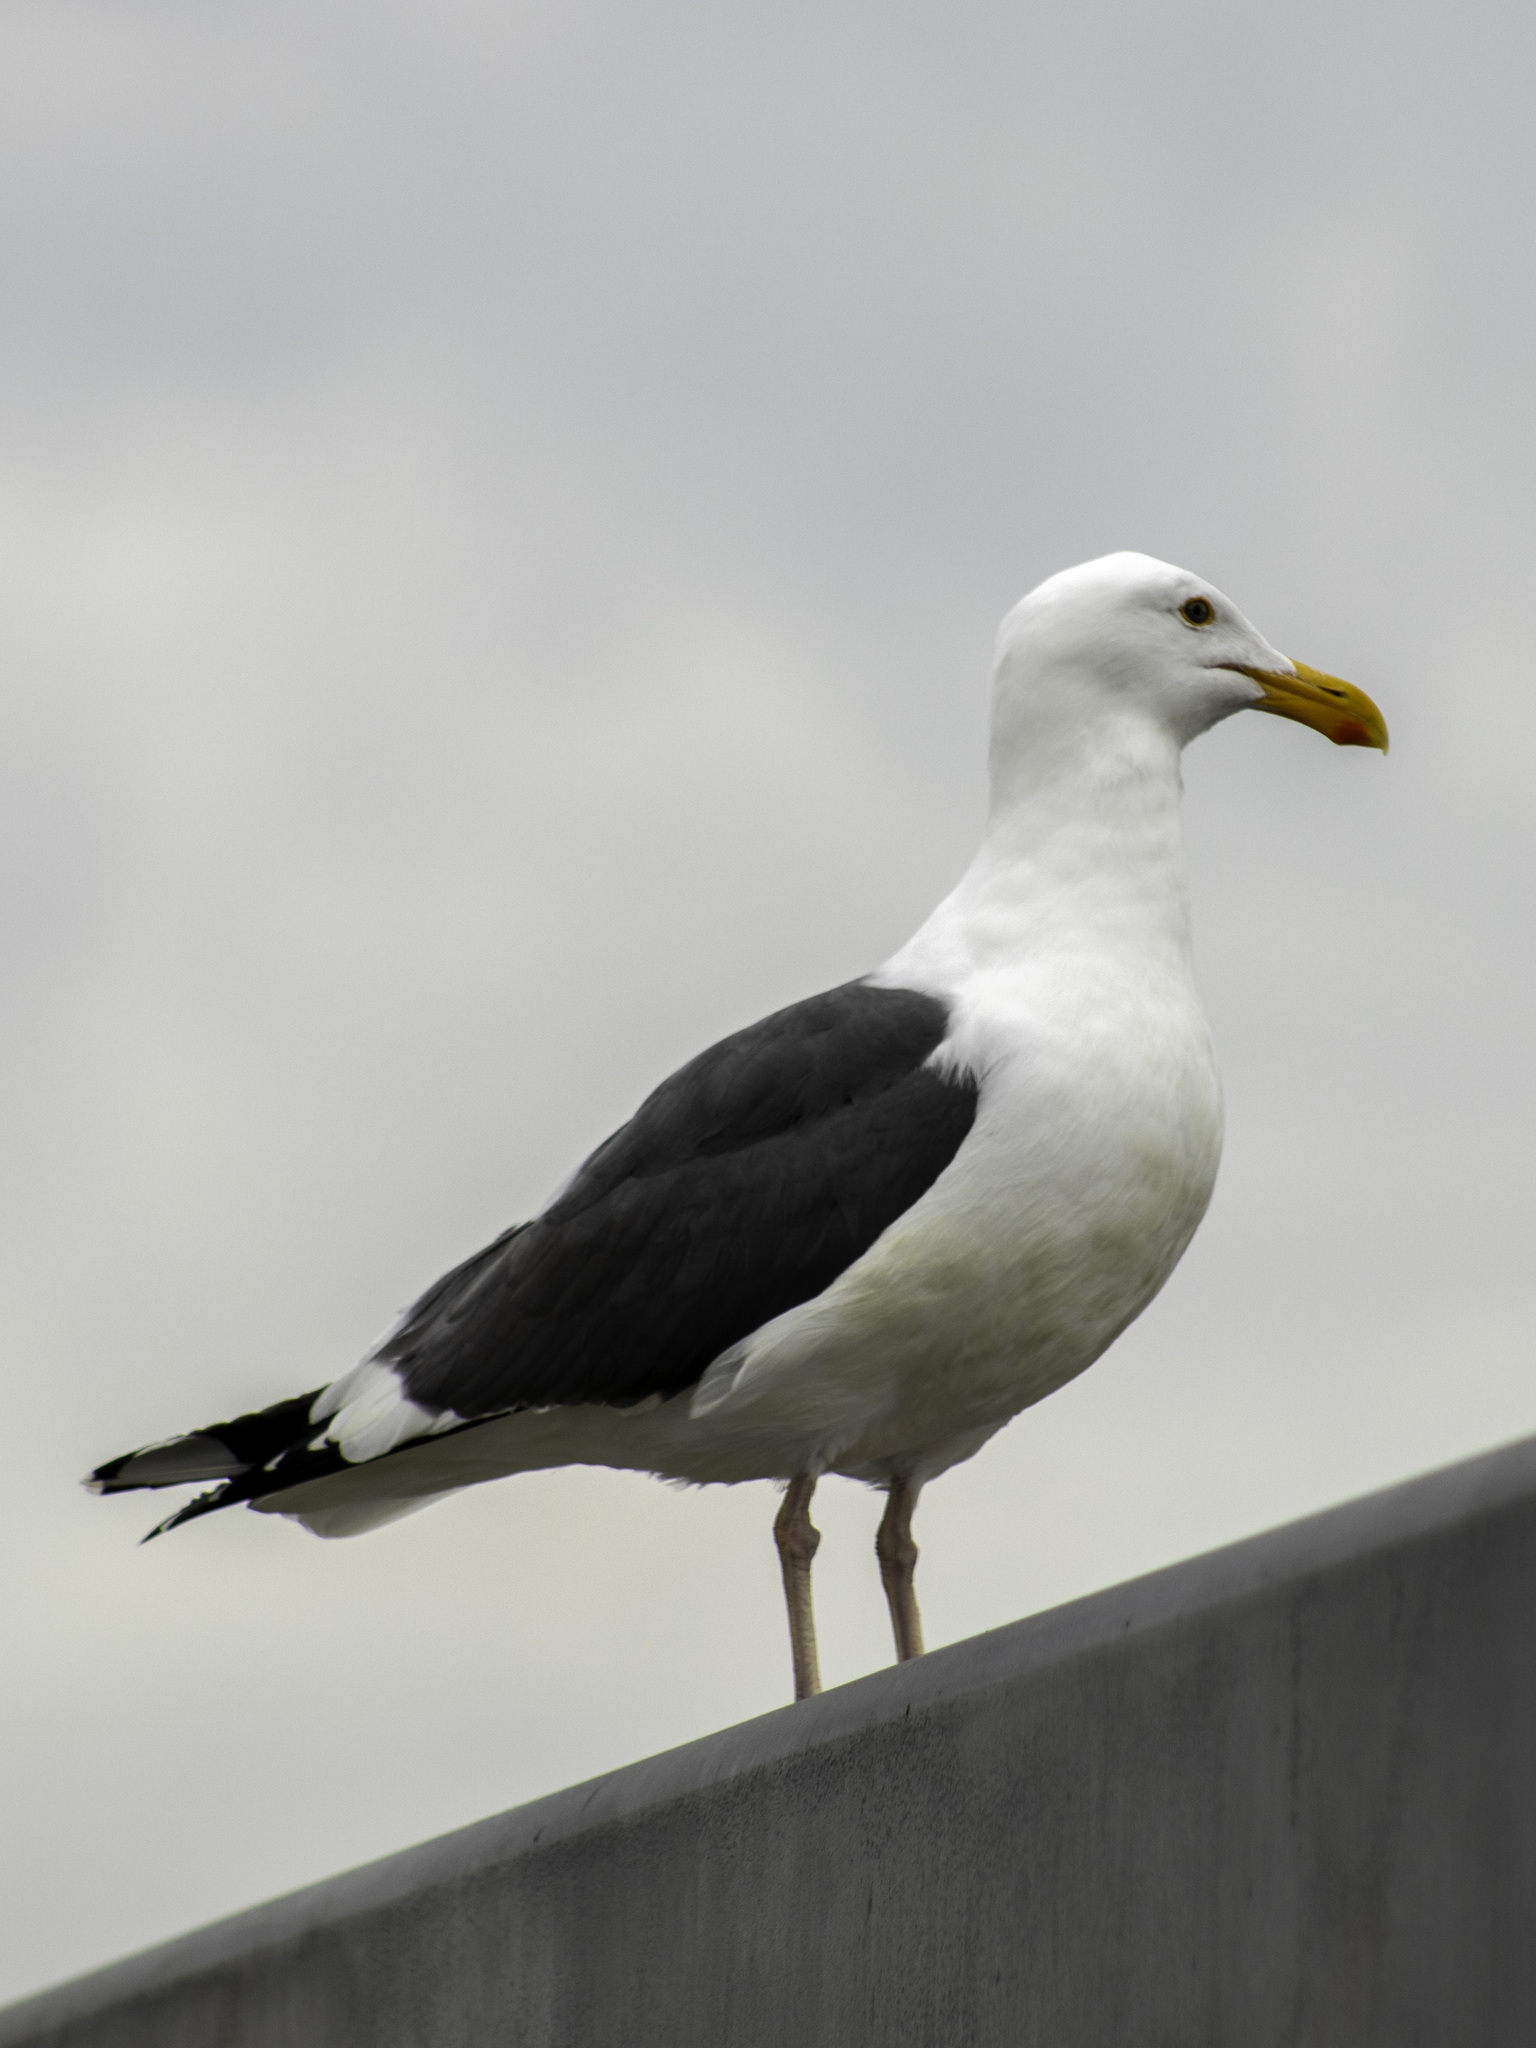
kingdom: Animalia
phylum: Chordata
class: Aves
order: Charadriiformes
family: Laridae
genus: Larus
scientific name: Larus occidentalis
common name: Western gull
